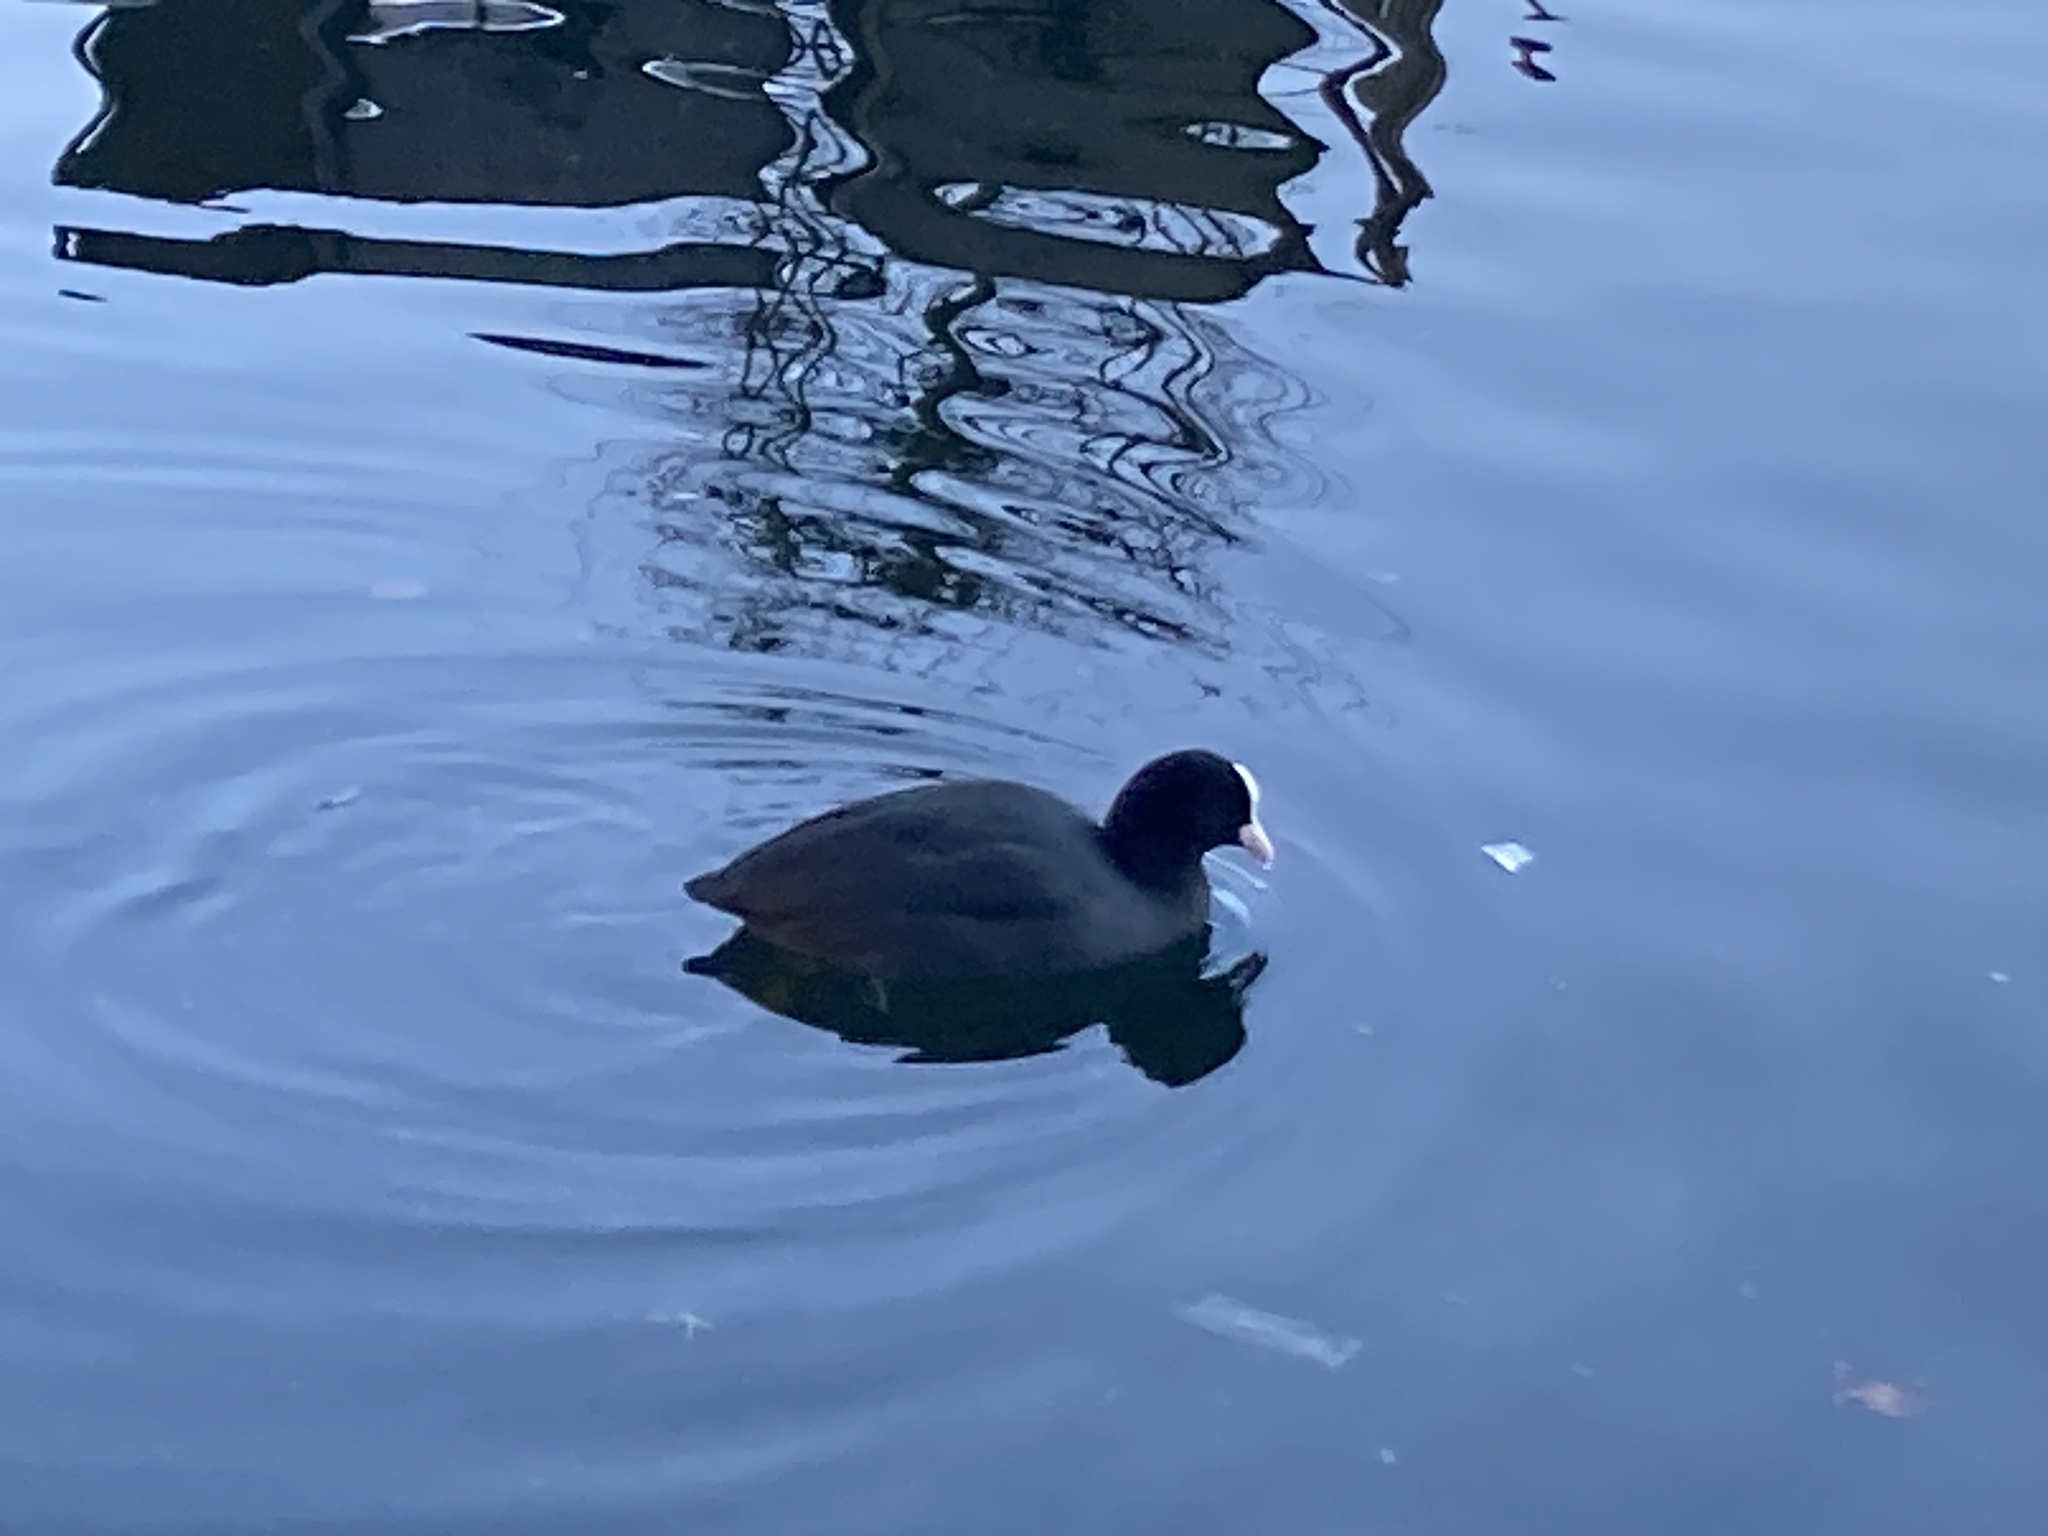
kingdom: Animalia
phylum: Chordata
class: Aves
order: Gruiformes
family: Rallidae
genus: Fulica
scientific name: Fulica atra
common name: Eurasian coot
